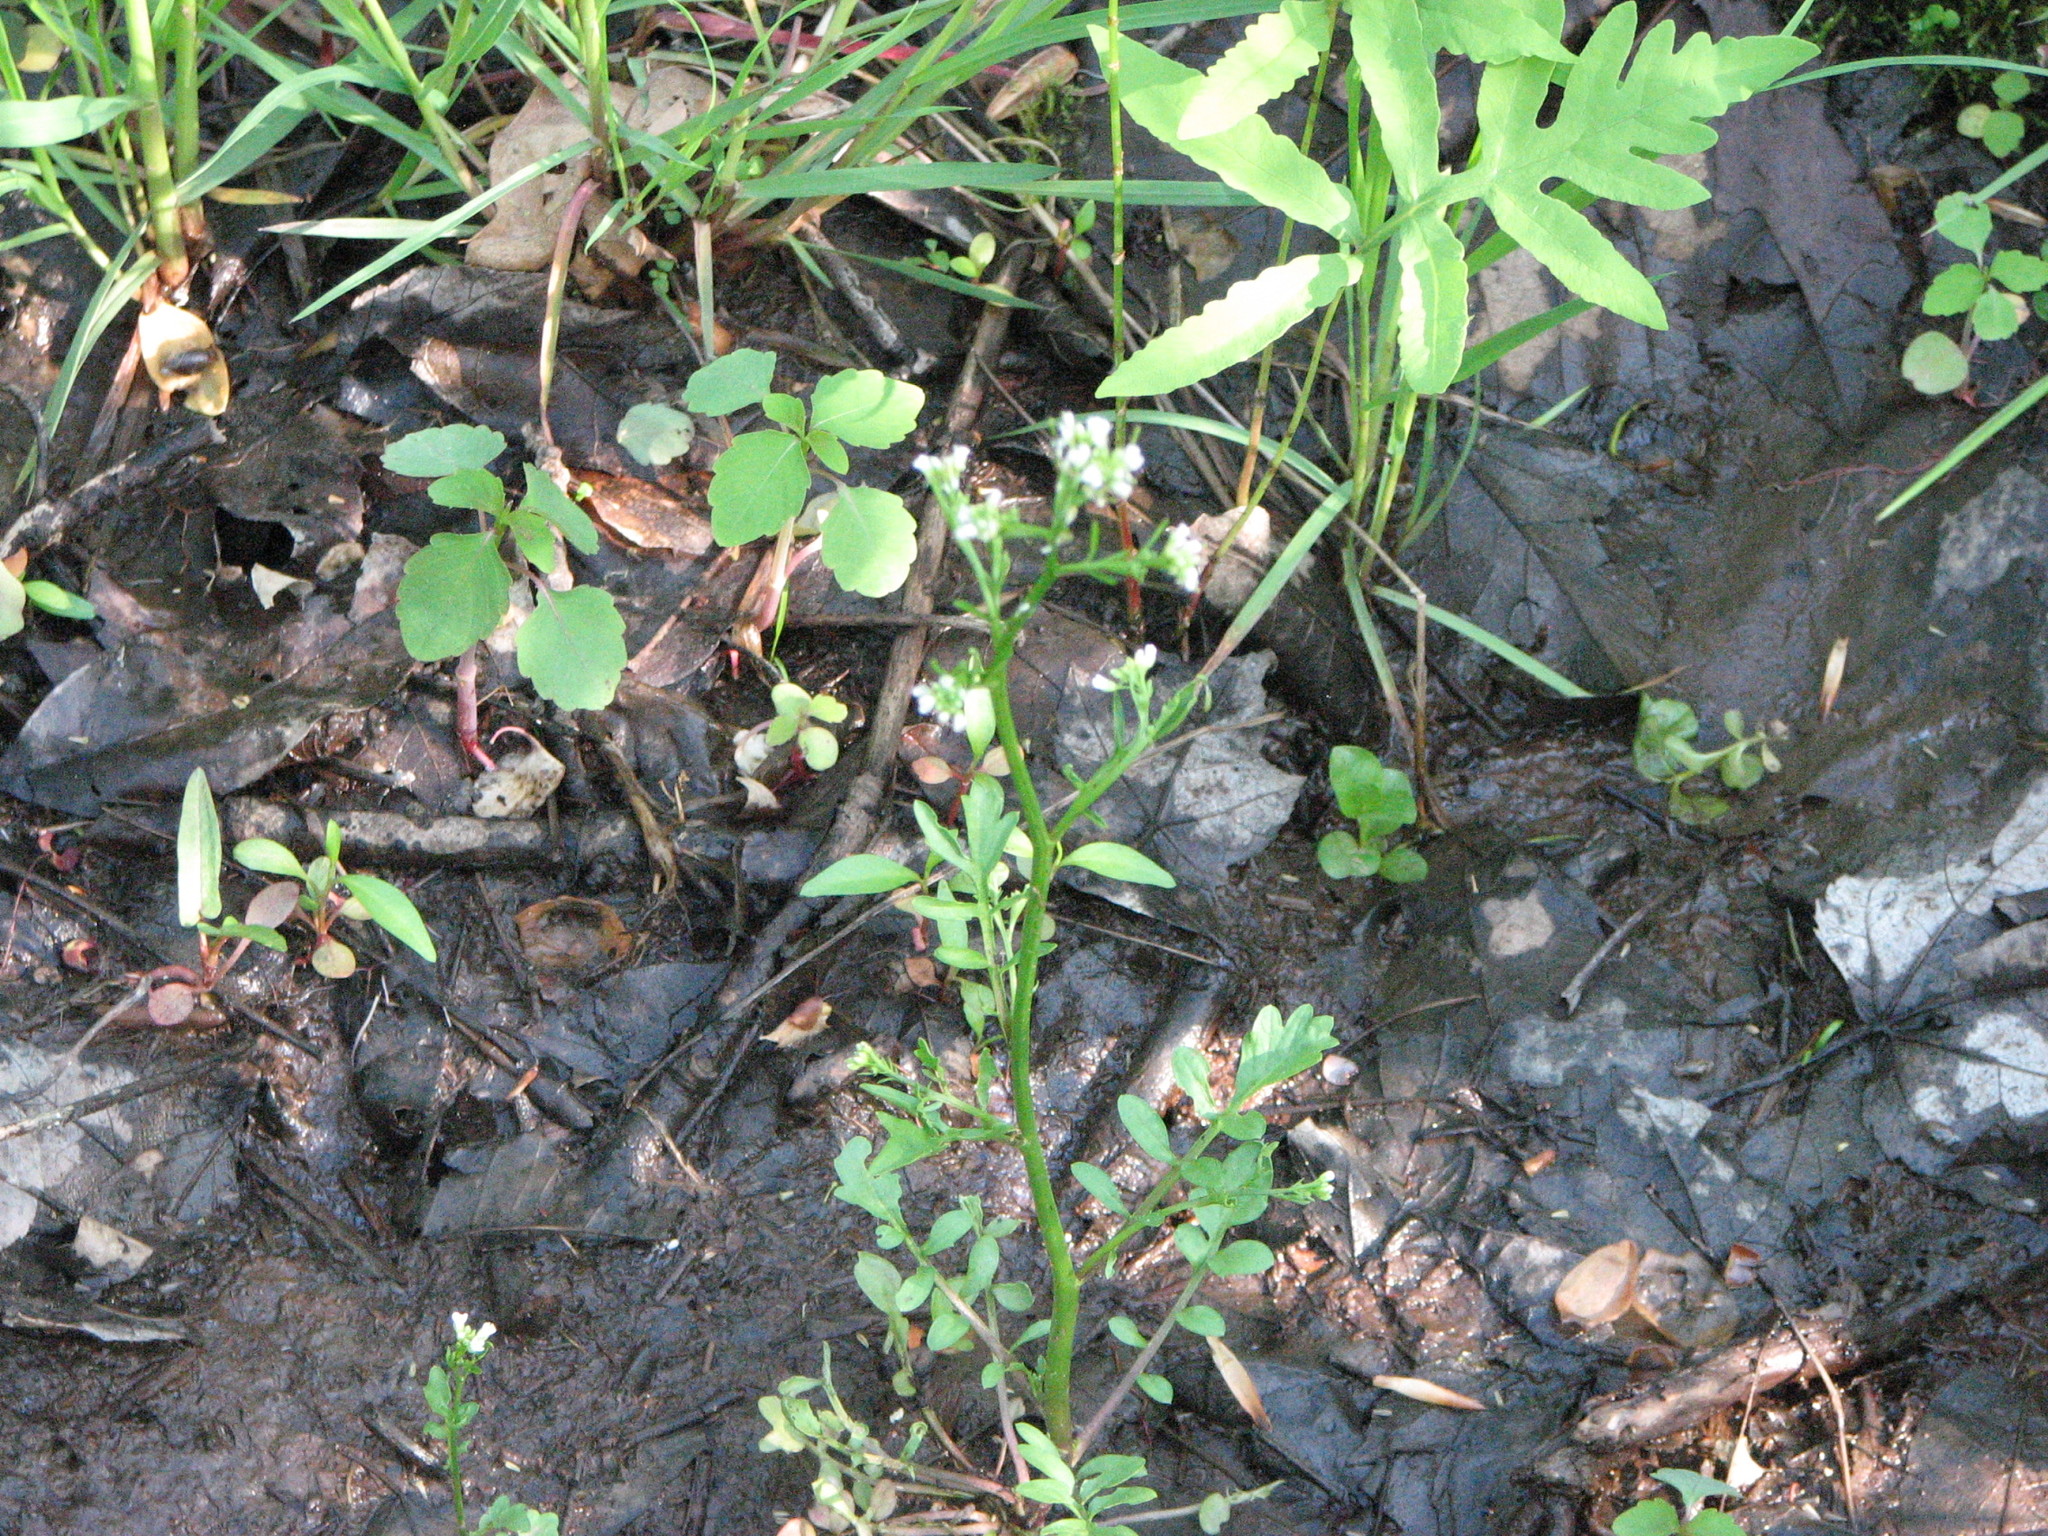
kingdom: Plantae
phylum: Tracheophyta
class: Magnoliopsida
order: Brassicales
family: Brassicaceae
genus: Cardamine
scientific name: Cardamine pensylvanica
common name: Pennsylvania bittercress
